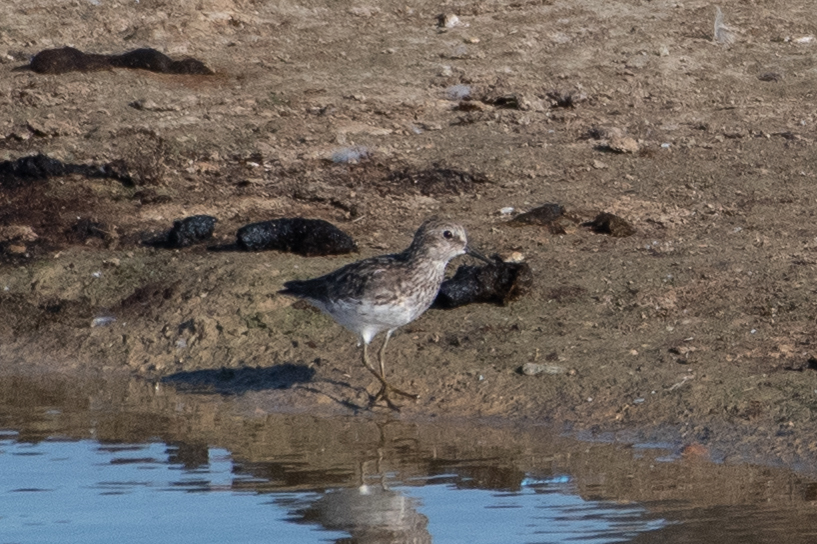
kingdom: Animalia
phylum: Chordata
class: Aves
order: Charadriiformes
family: Scolopacidae
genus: Calidris
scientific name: Calidris minutilla
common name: Least sandpiper
